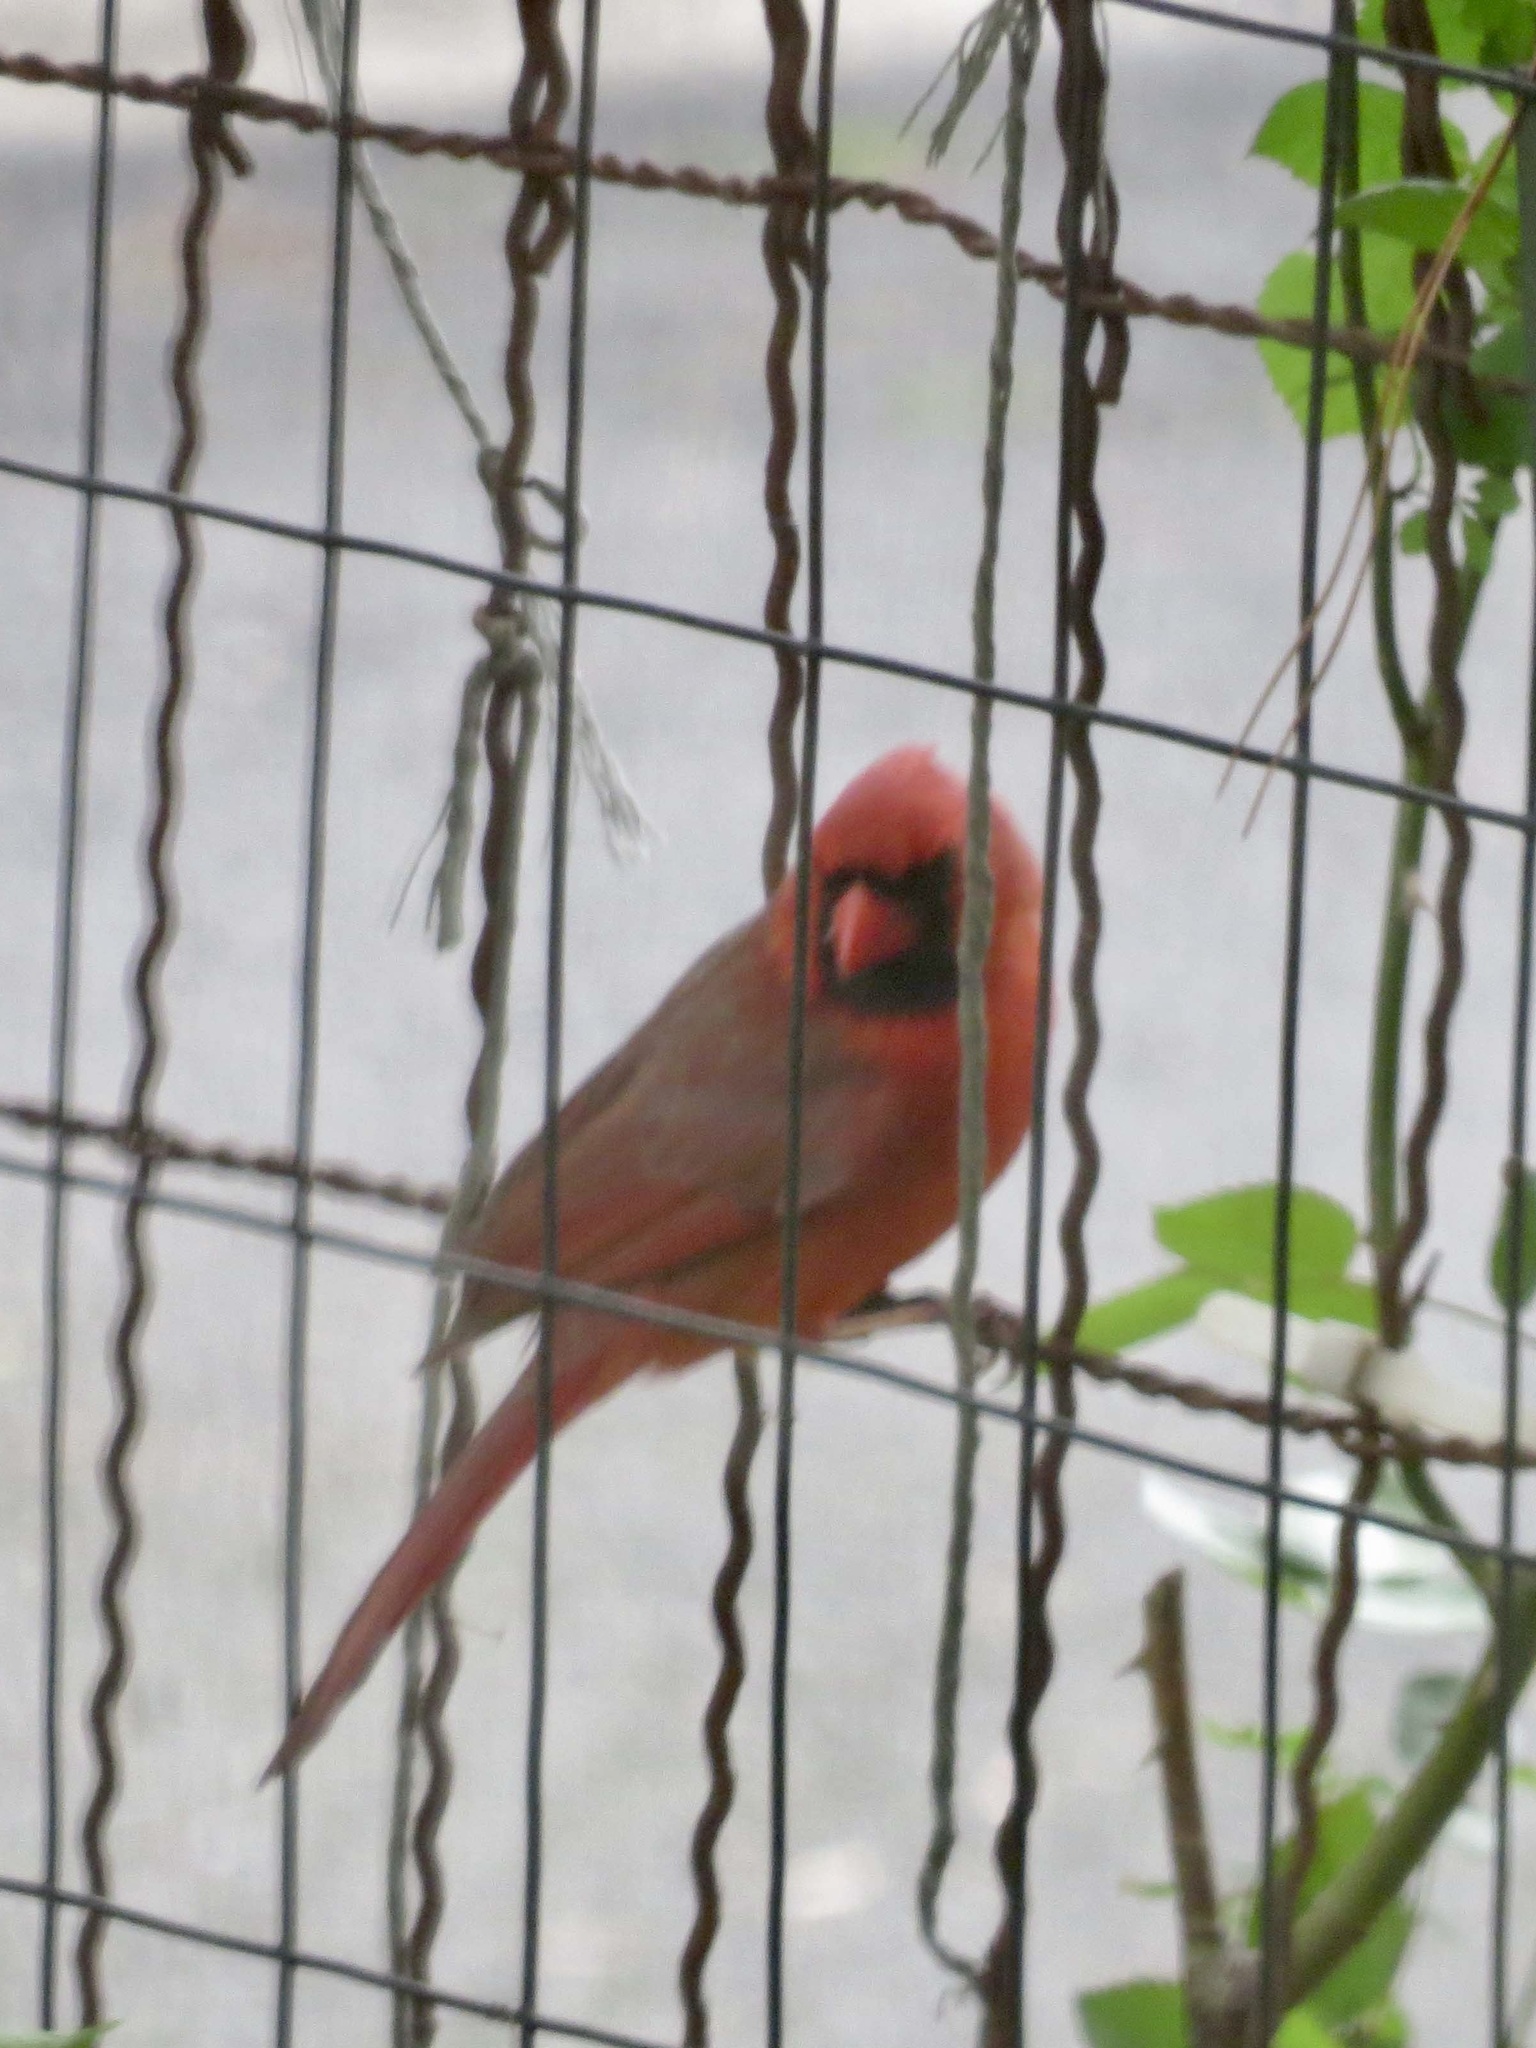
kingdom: Animalia
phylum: Chordata
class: Aves
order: Passeriformes
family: Cardinalidae
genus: Cardinalis
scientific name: Cardinalis cardinalis
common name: Northern cardinal
